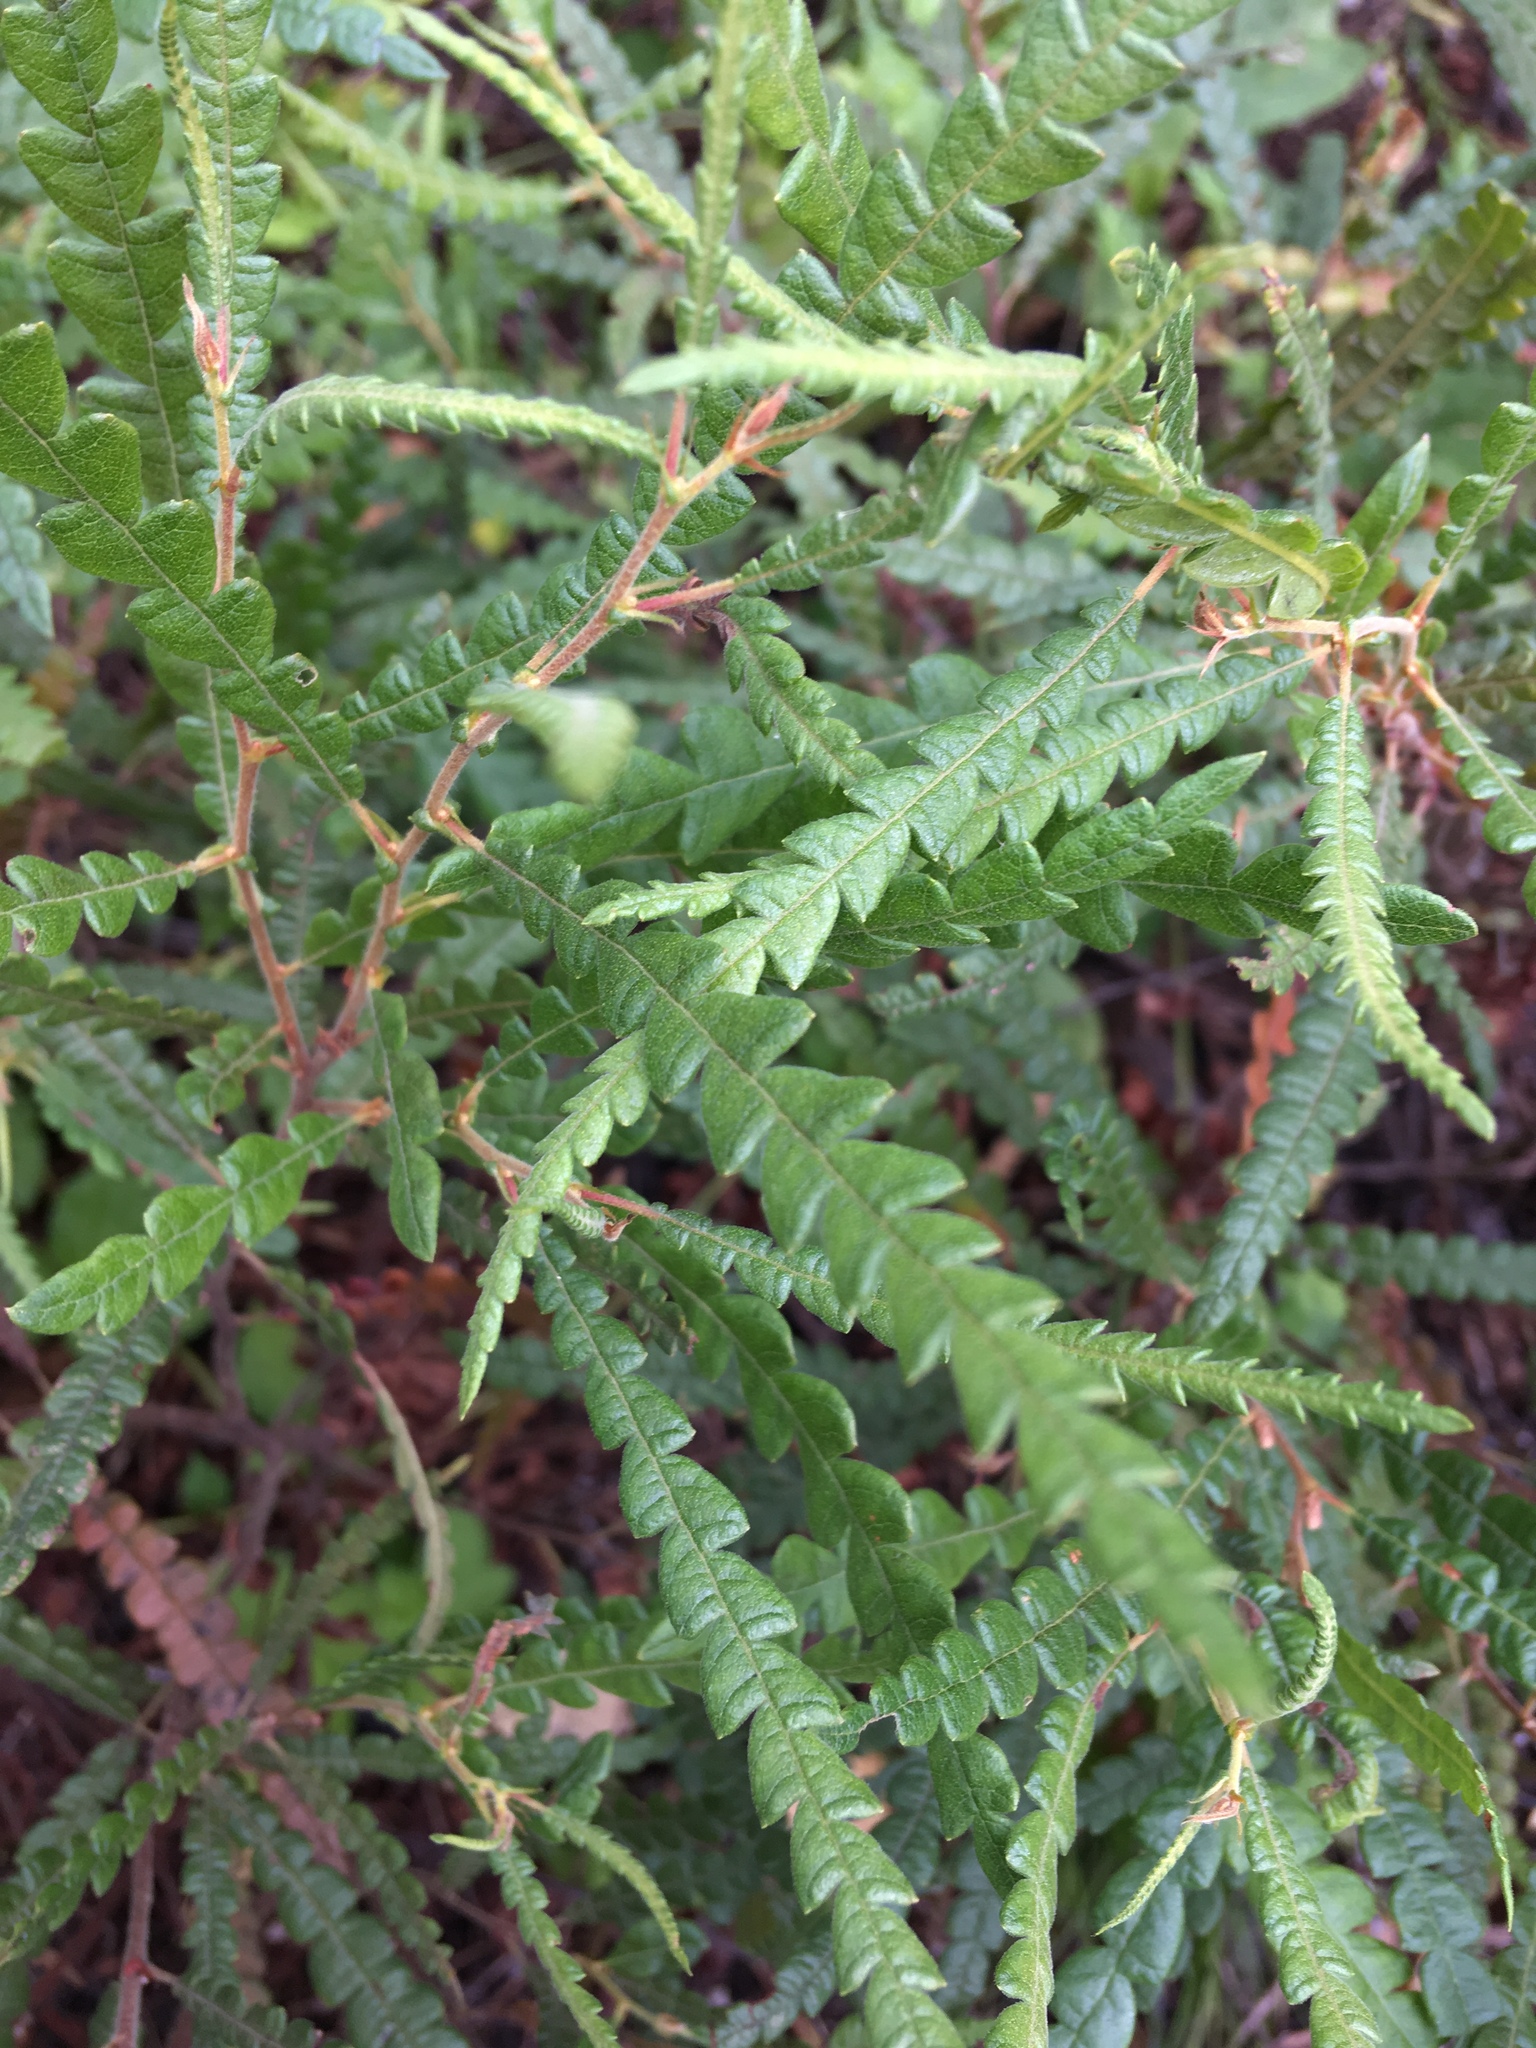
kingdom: Plantae
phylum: Tracheophyta
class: Magnoliopsida
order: Fagales
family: Myricaceae
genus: Comptonia
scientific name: Comptonia peregrina
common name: Sweet-fern
